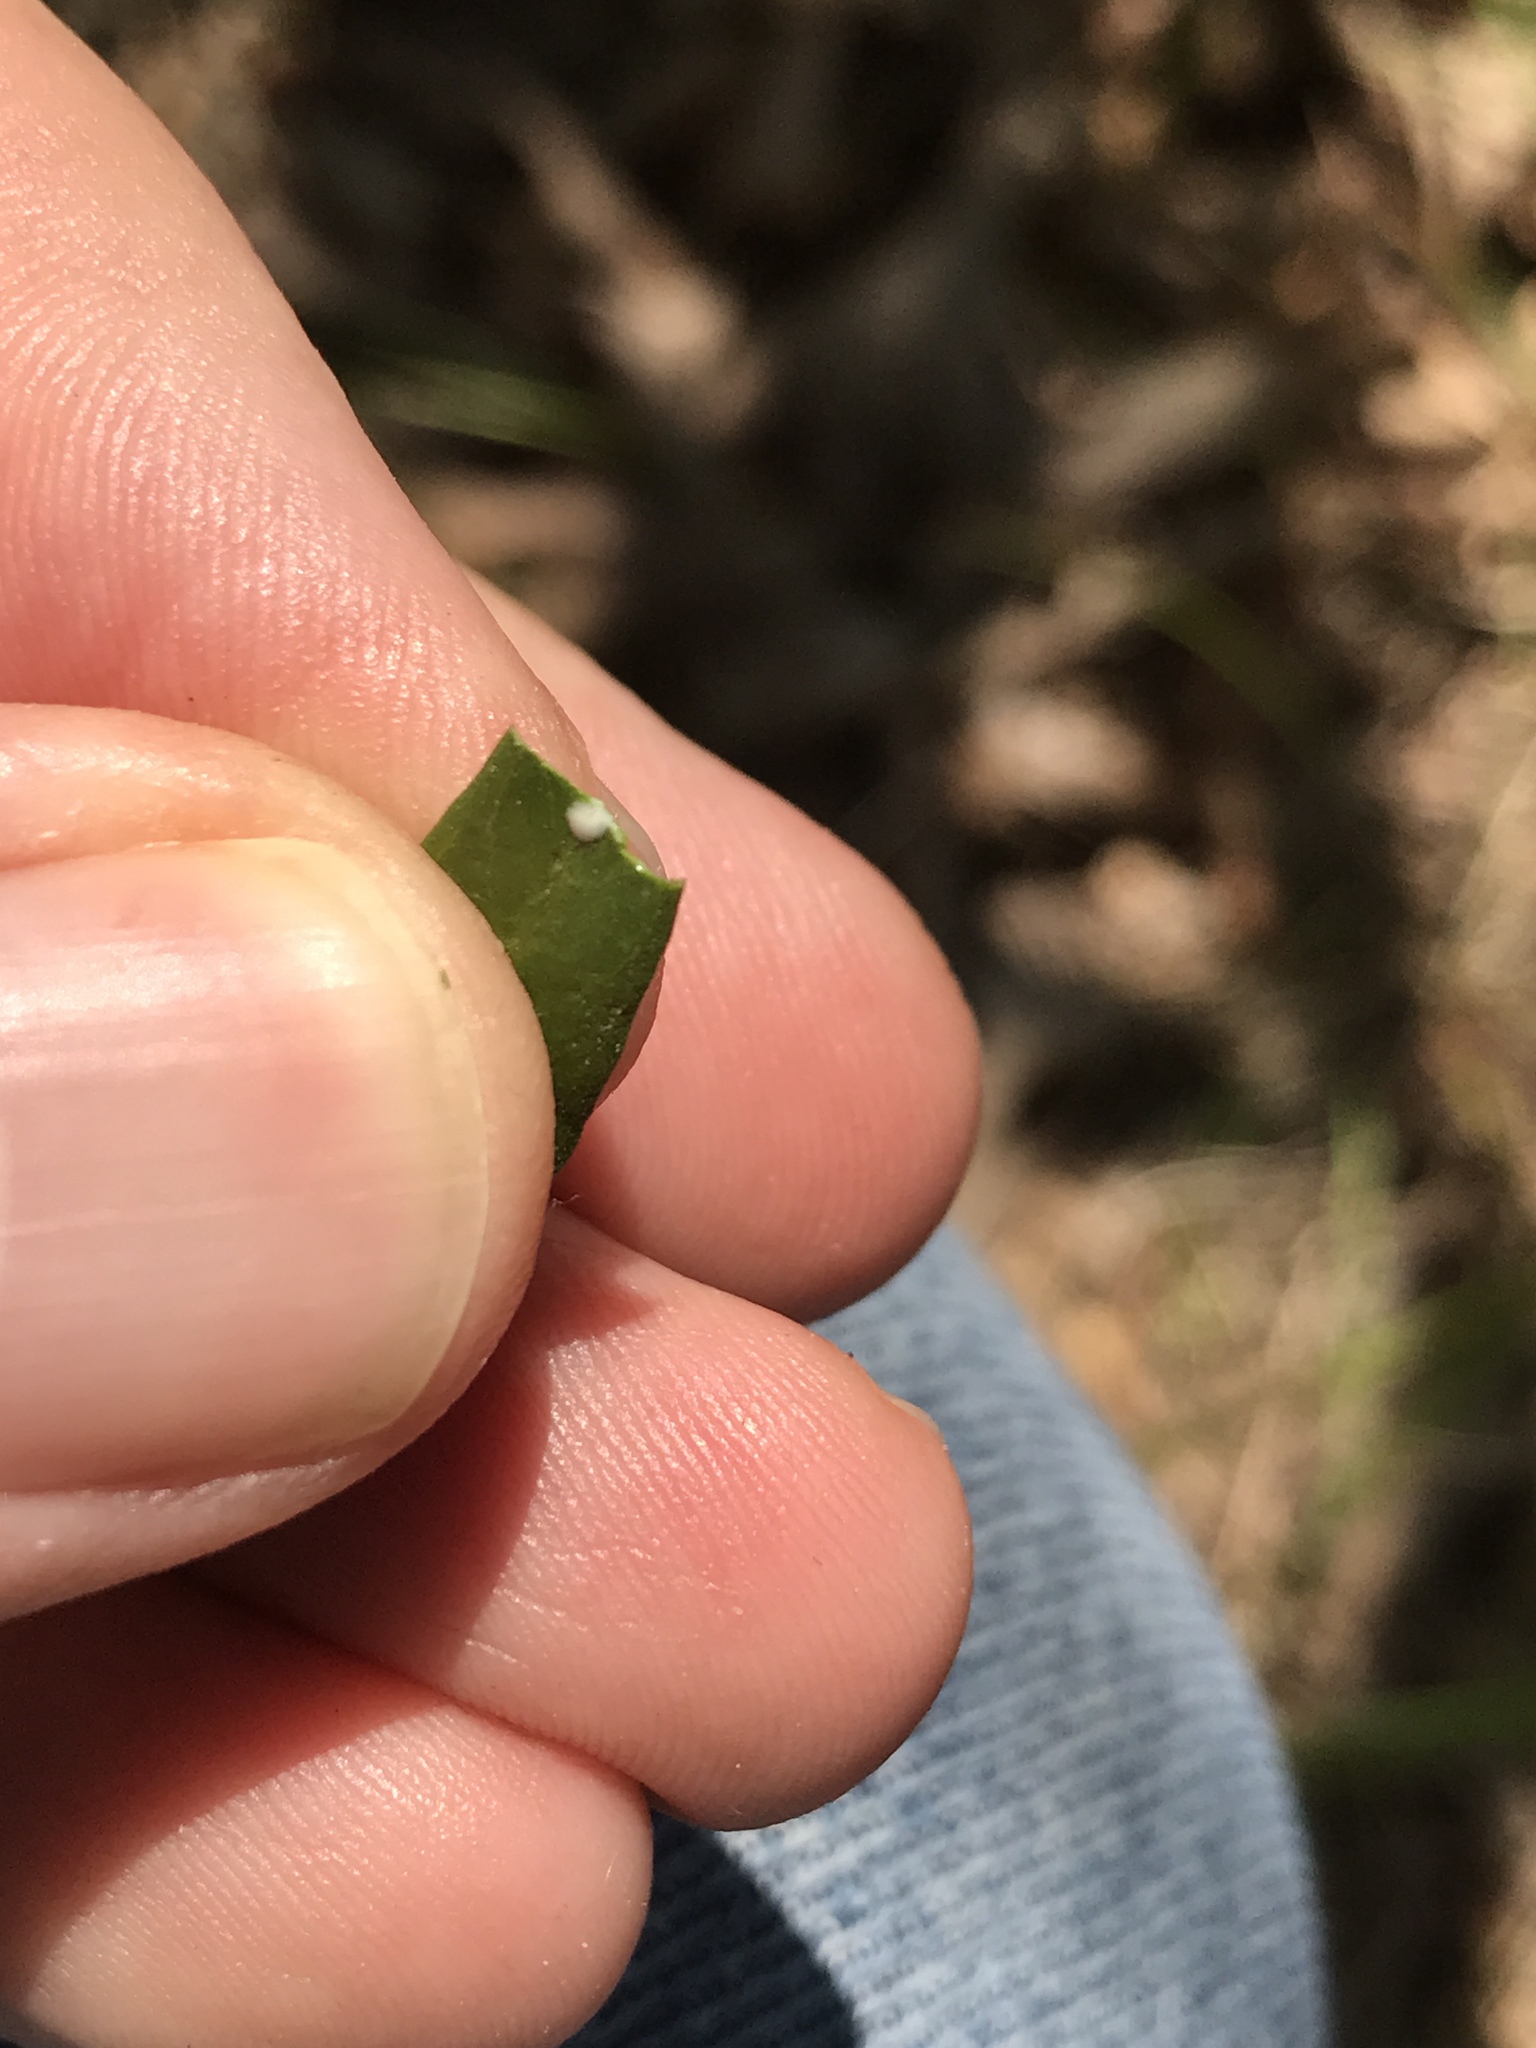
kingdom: Plantae
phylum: Tracheophyta
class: Magnoliopsida
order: Gentianales
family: Apocynaceae
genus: Thyrsanthella
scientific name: Thyrsanthella difformis
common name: Climbing dogbane
